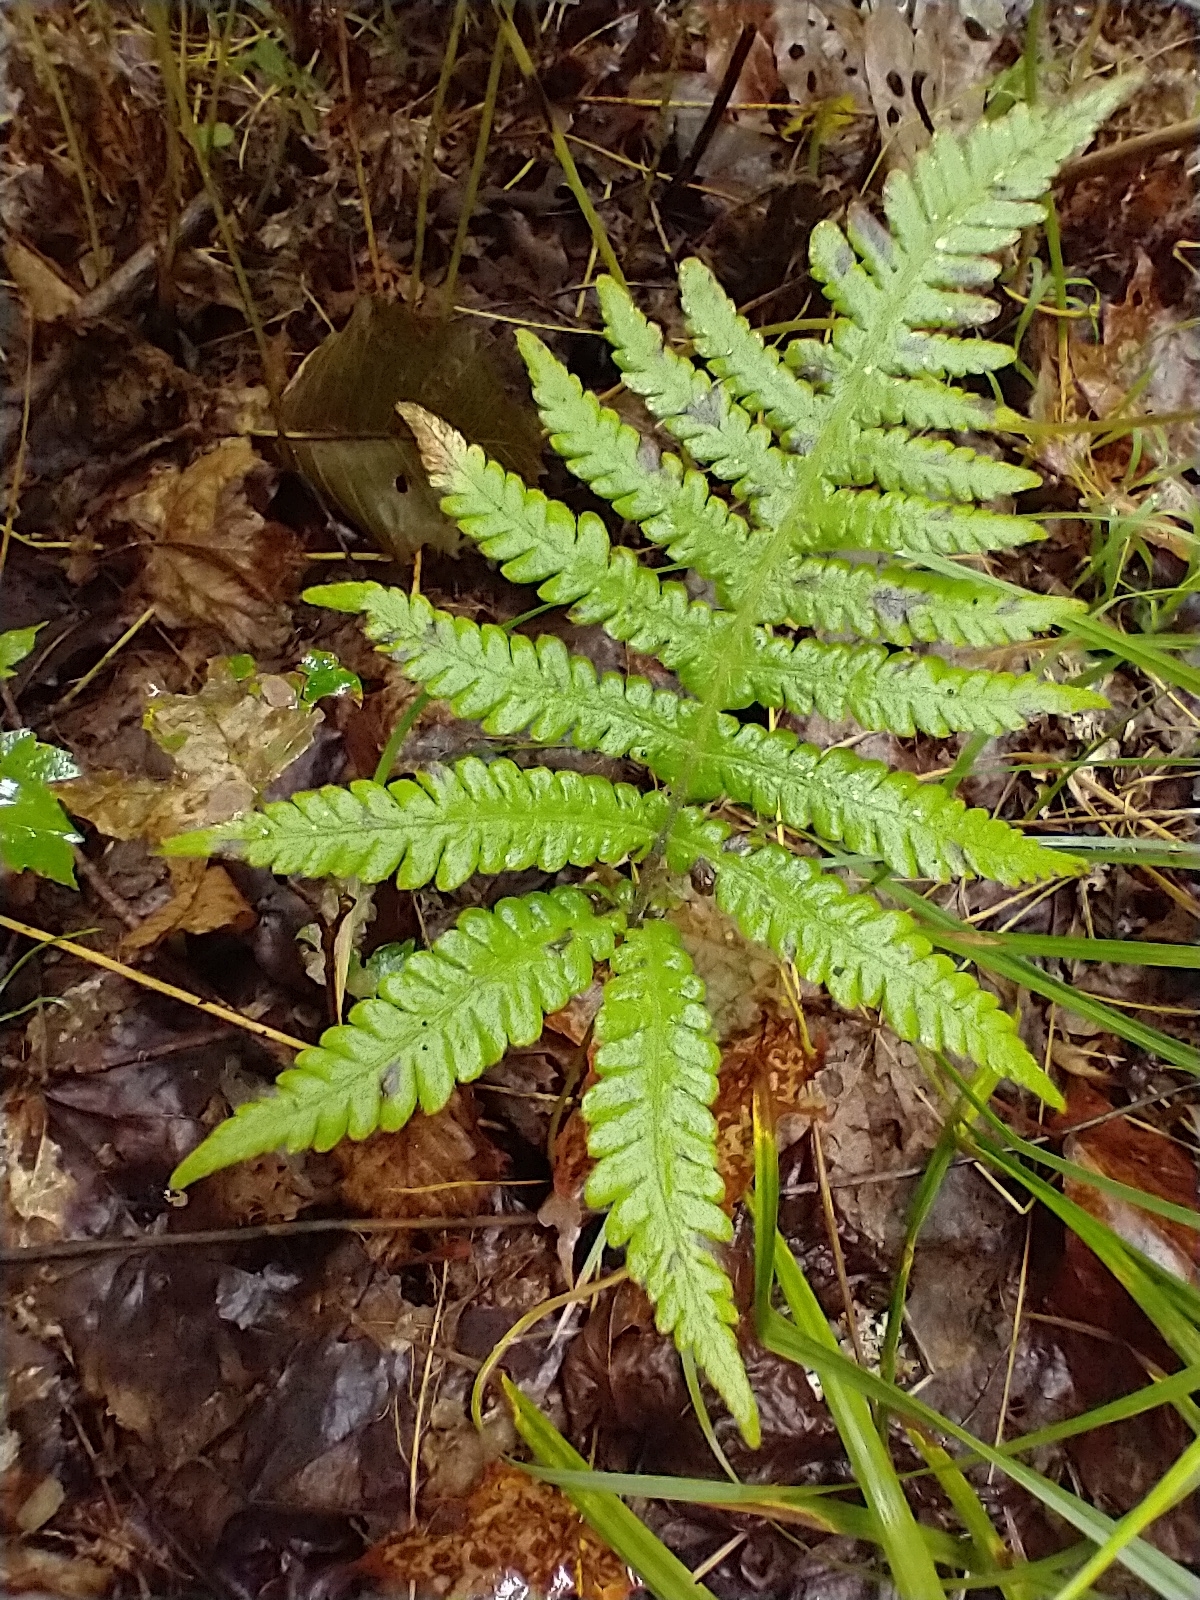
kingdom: Plantae
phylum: Tracheophyta
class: Polypodiopsida
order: Polypodiales
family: Thelypteridaceae
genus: Phegopteris
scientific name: Phegopteris connectilis
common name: Beech fern
